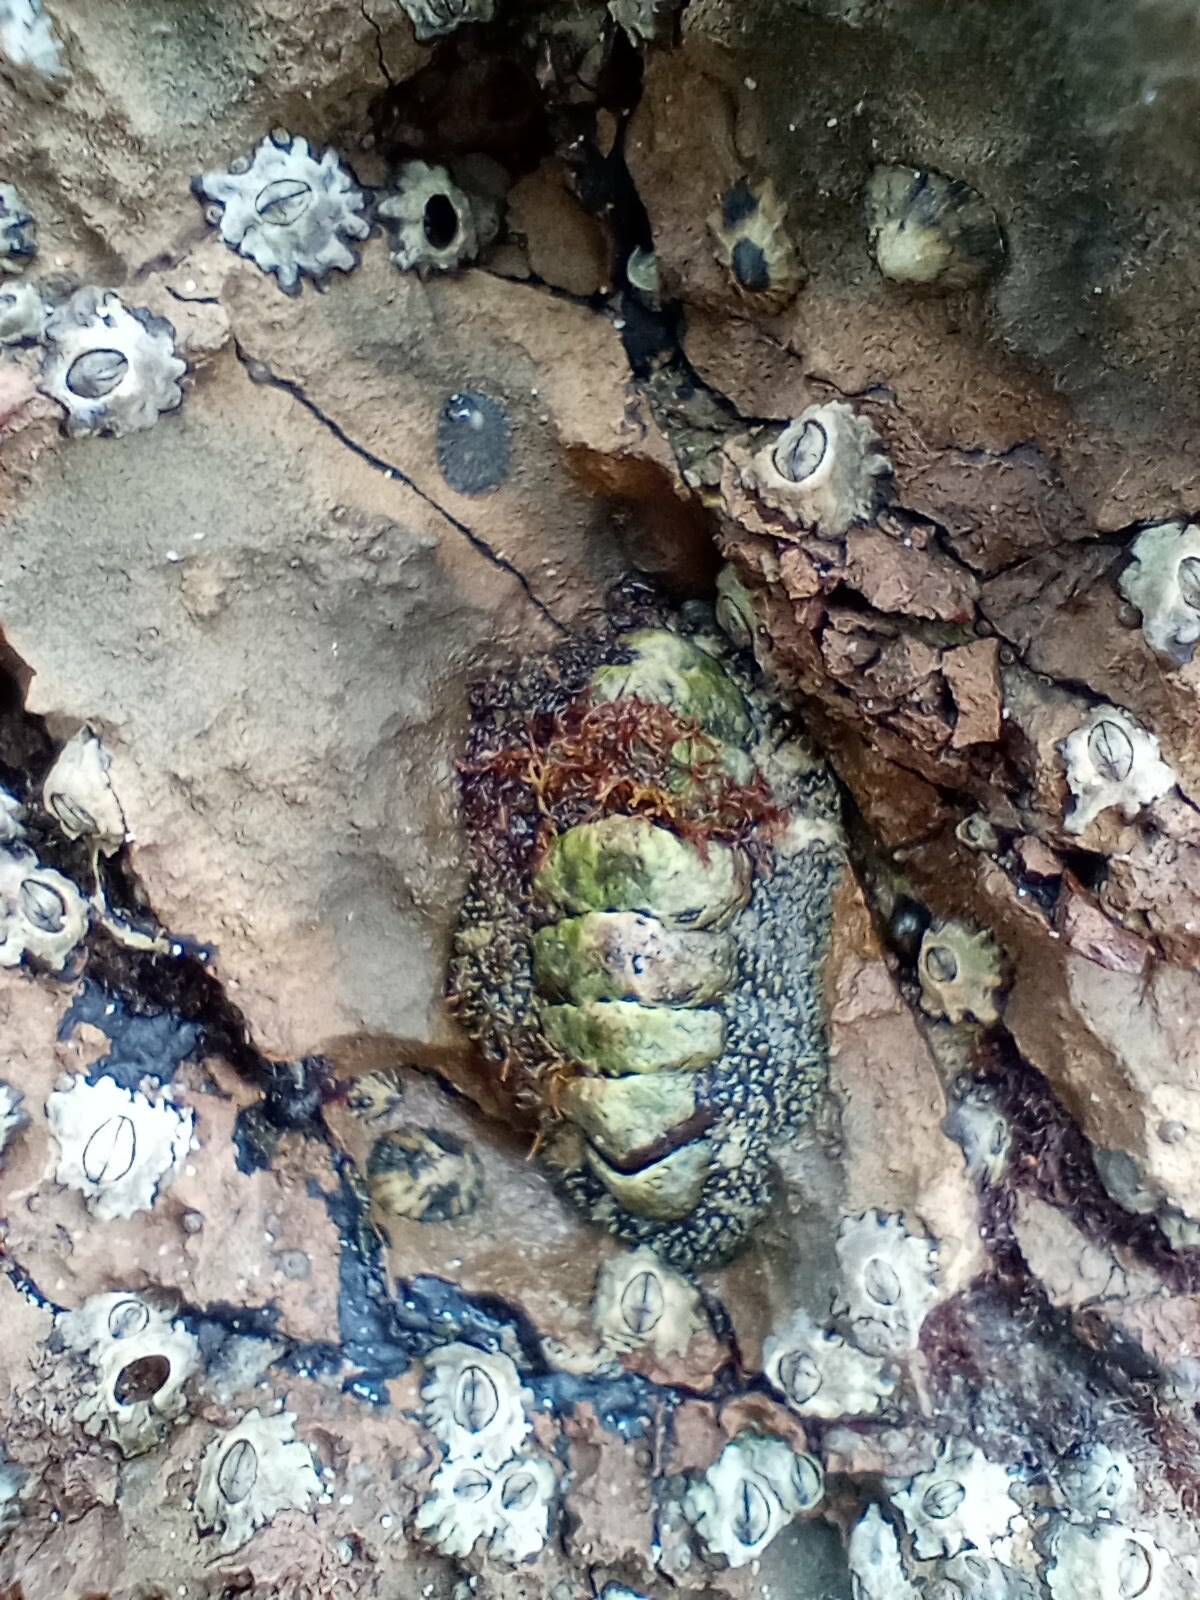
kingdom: Animalia
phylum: Mollusca
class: Polyplacophora
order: Chitonida
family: Tonicellidae
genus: Nuttallina
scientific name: Nuttallina californica
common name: California nuttall chiton
